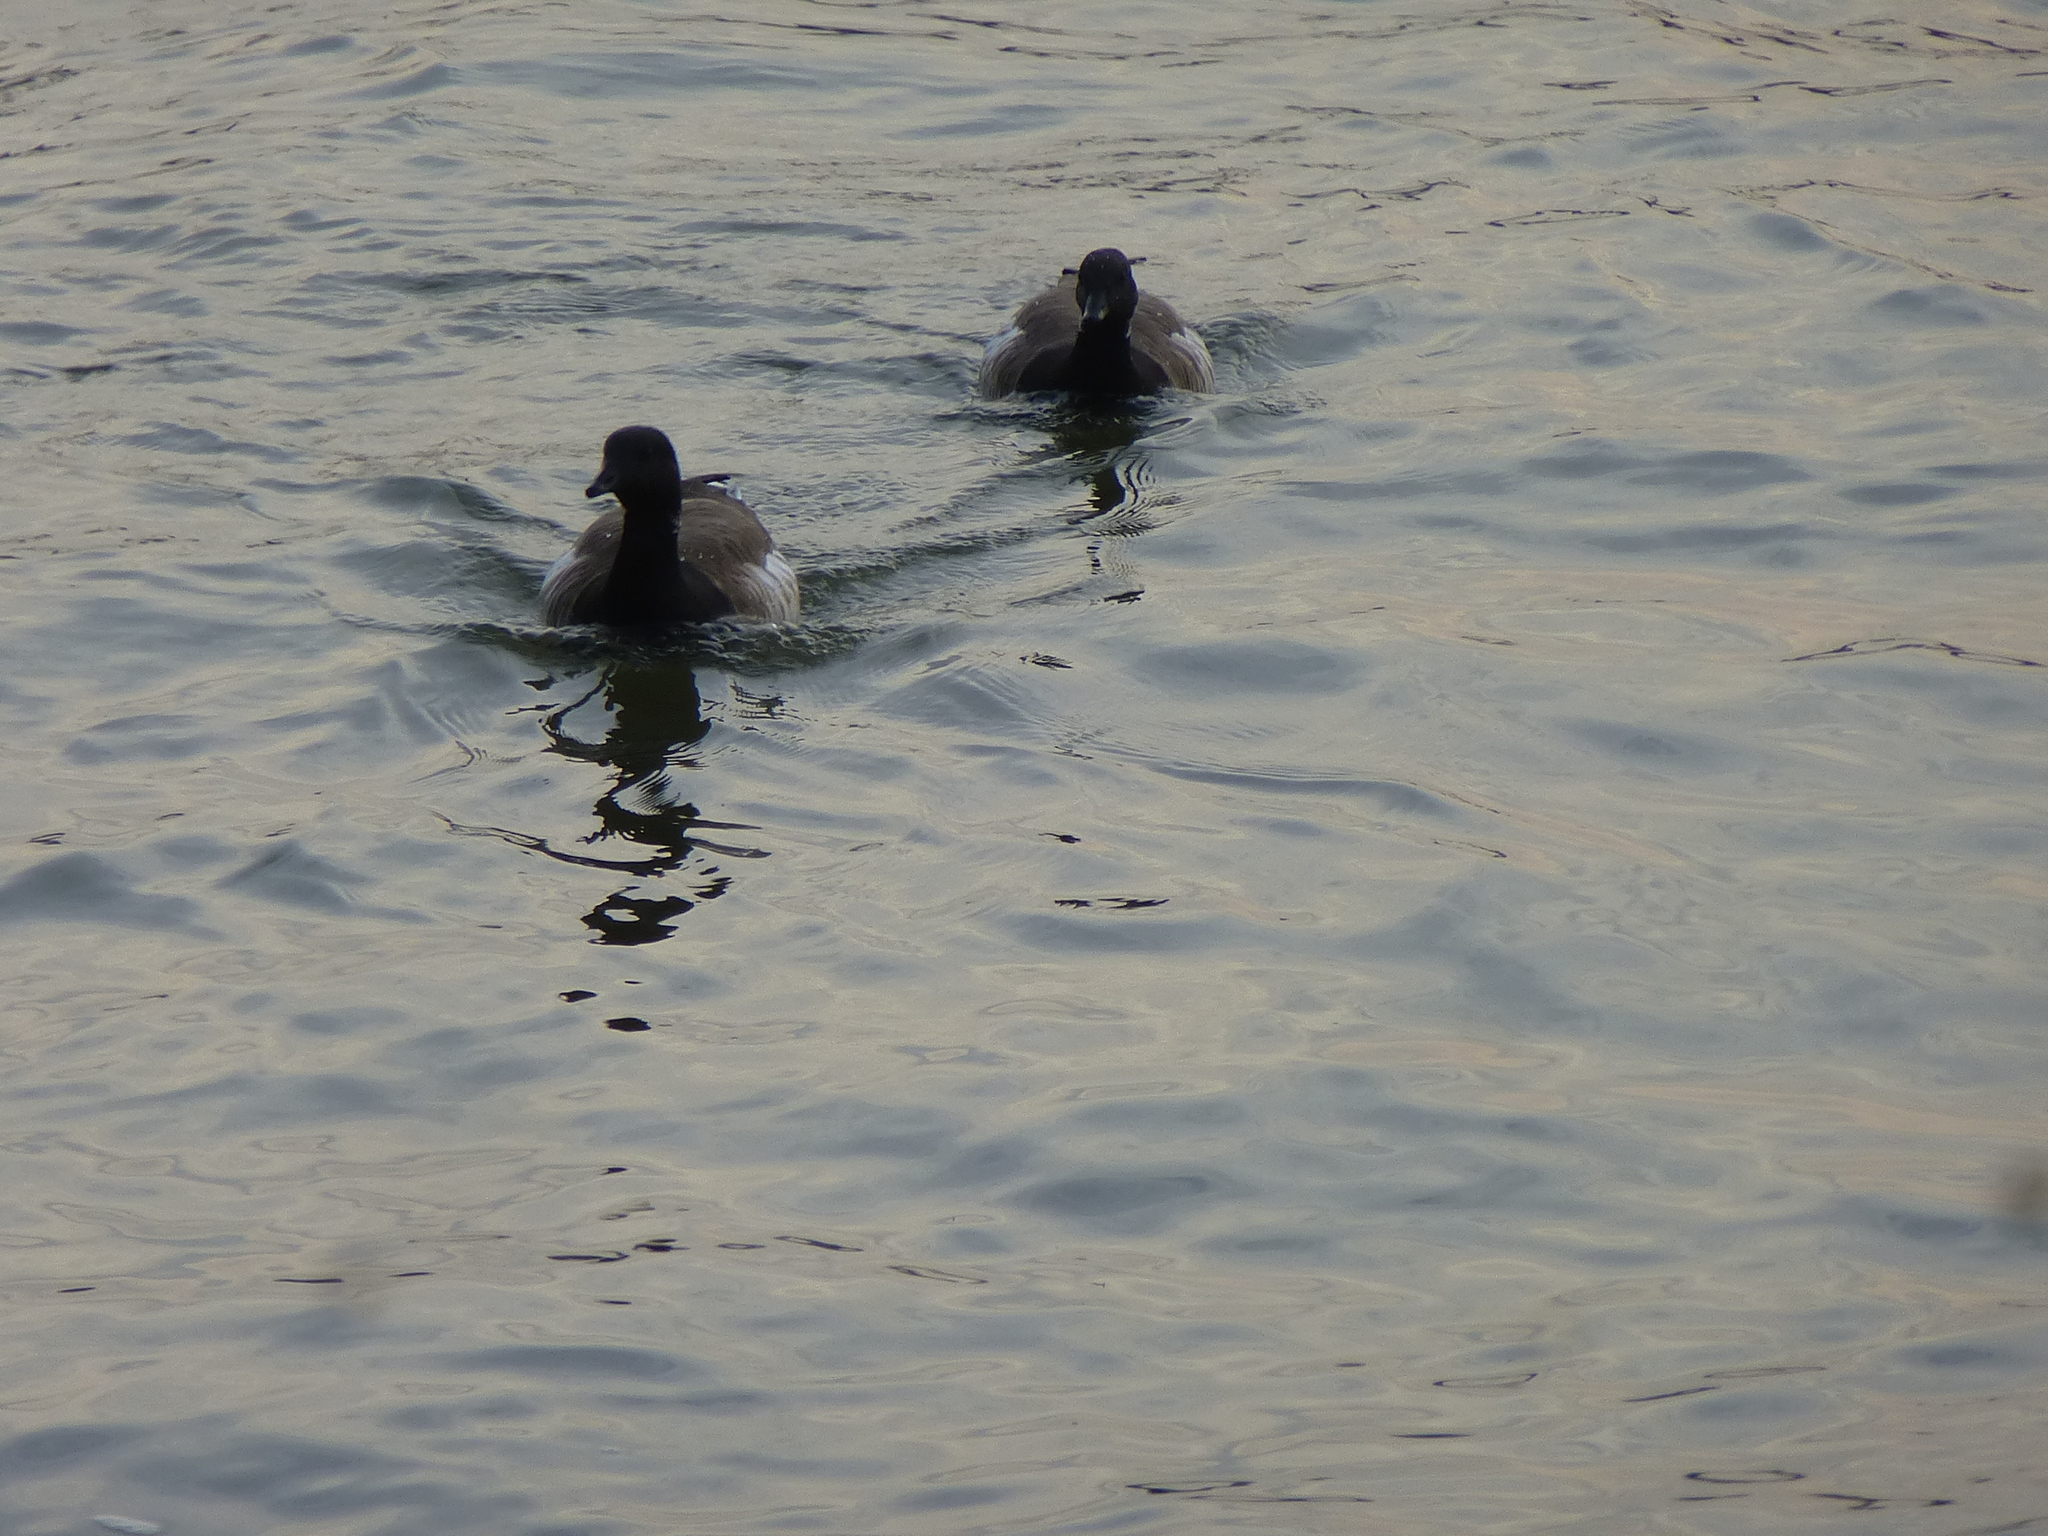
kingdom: Animalia
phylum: Chordata
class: Aves
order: Anseriformes
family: Anatidae
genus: Branta
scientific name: Branta bernicla
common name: Brant goose
